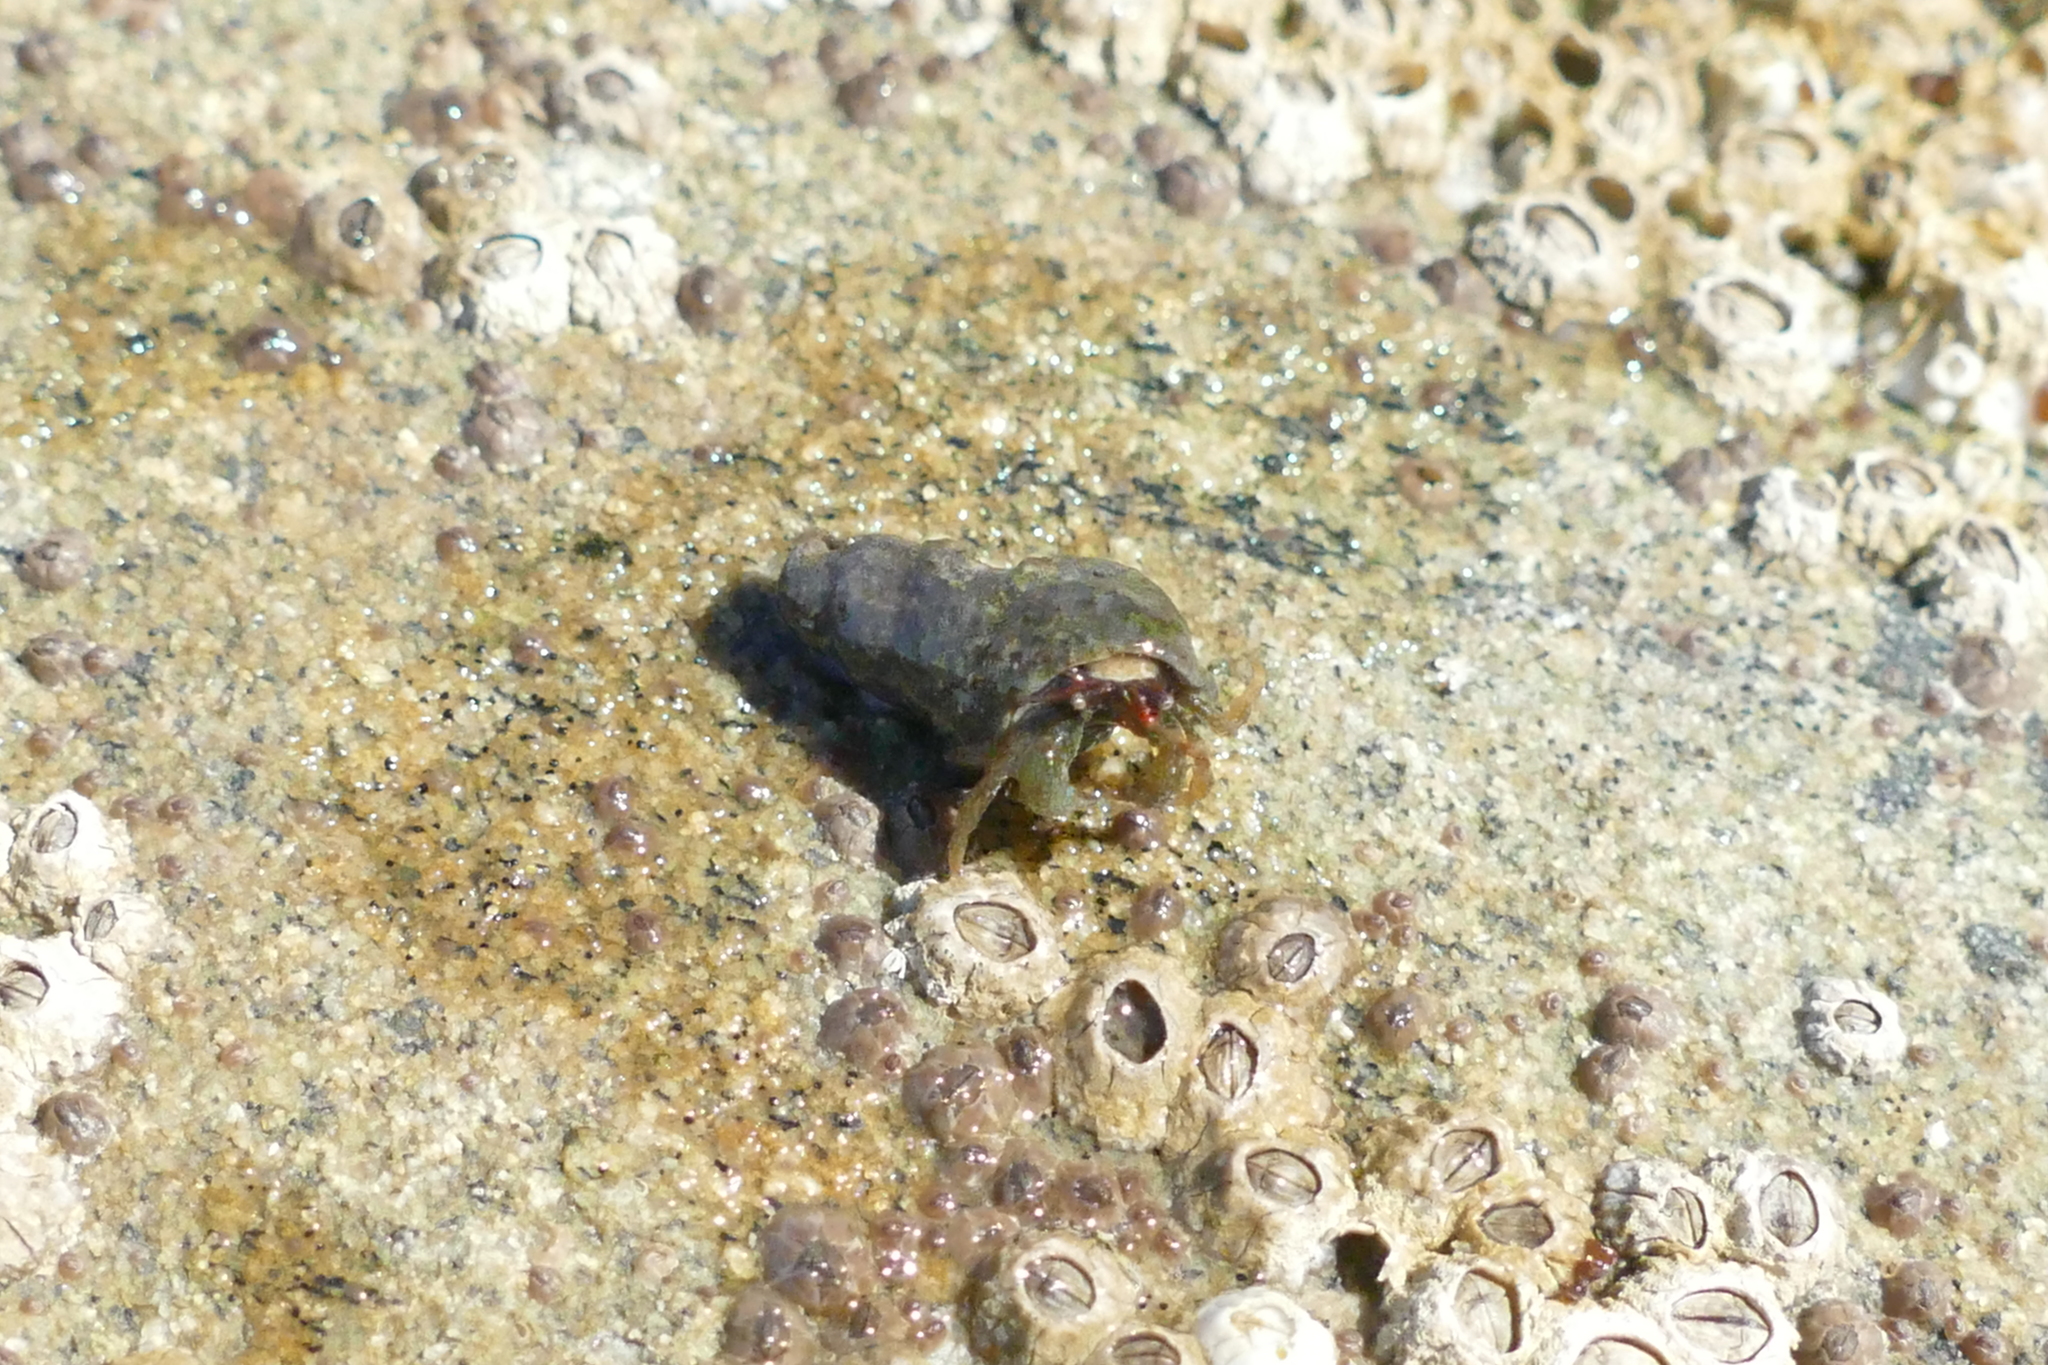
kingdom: Animalia
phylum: Arthropoda
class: Malacostraca
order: Decapoda
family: Paguridae
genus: Pagurus
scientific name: Pagurus granosimanus
